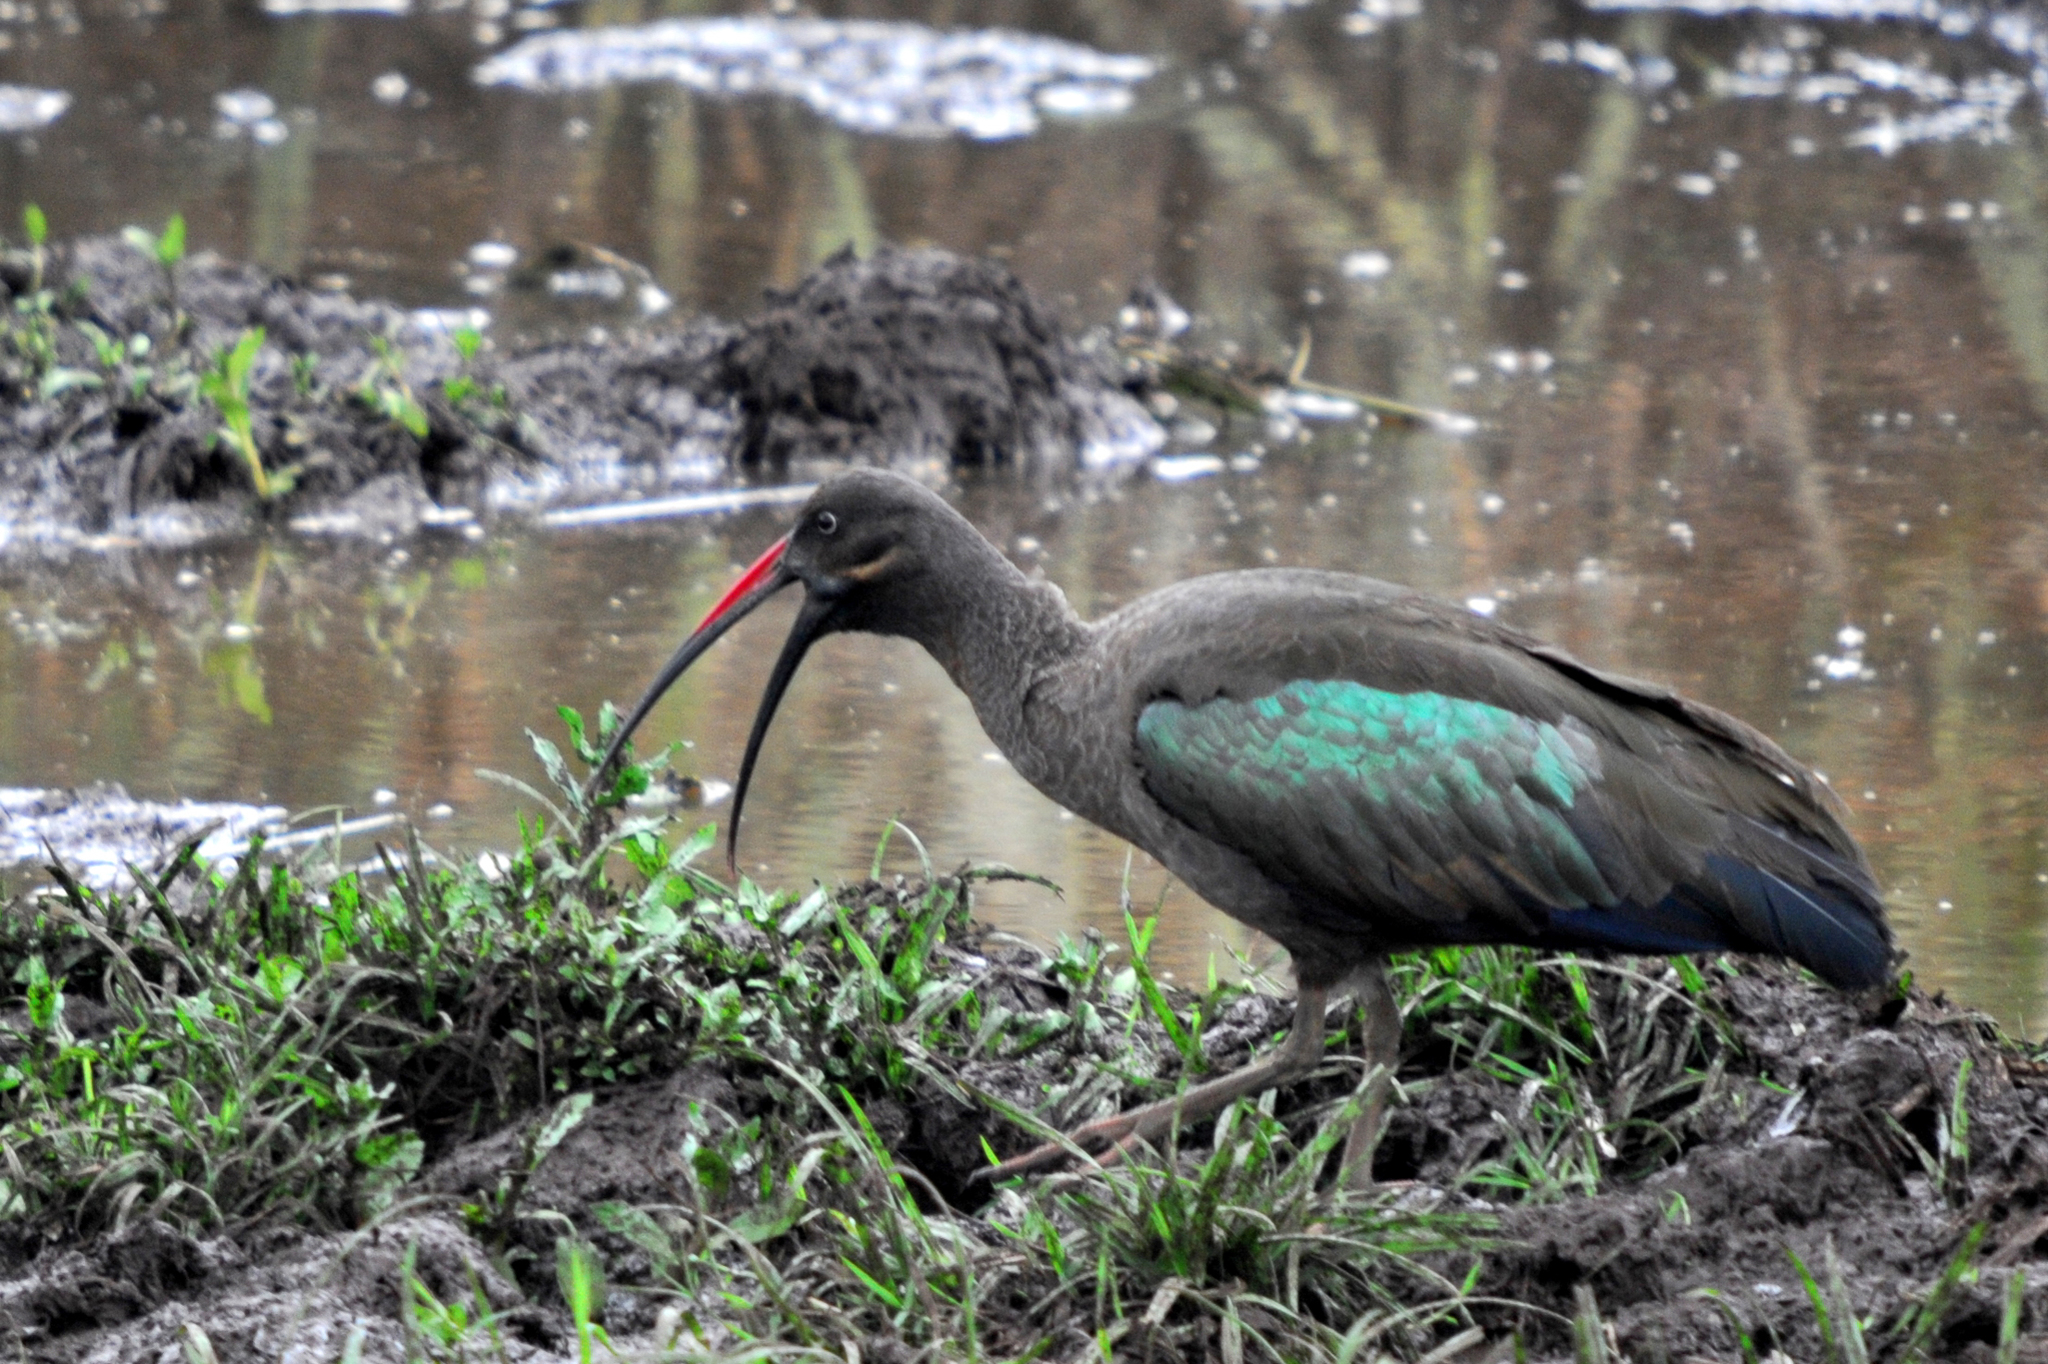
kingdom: Animalia
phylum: Chordata
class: Aves
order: Pelecaniformes
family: Threskiornithidae
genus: Bostrychia
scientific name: Bostrychia hagedash
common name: Hadada ibis
